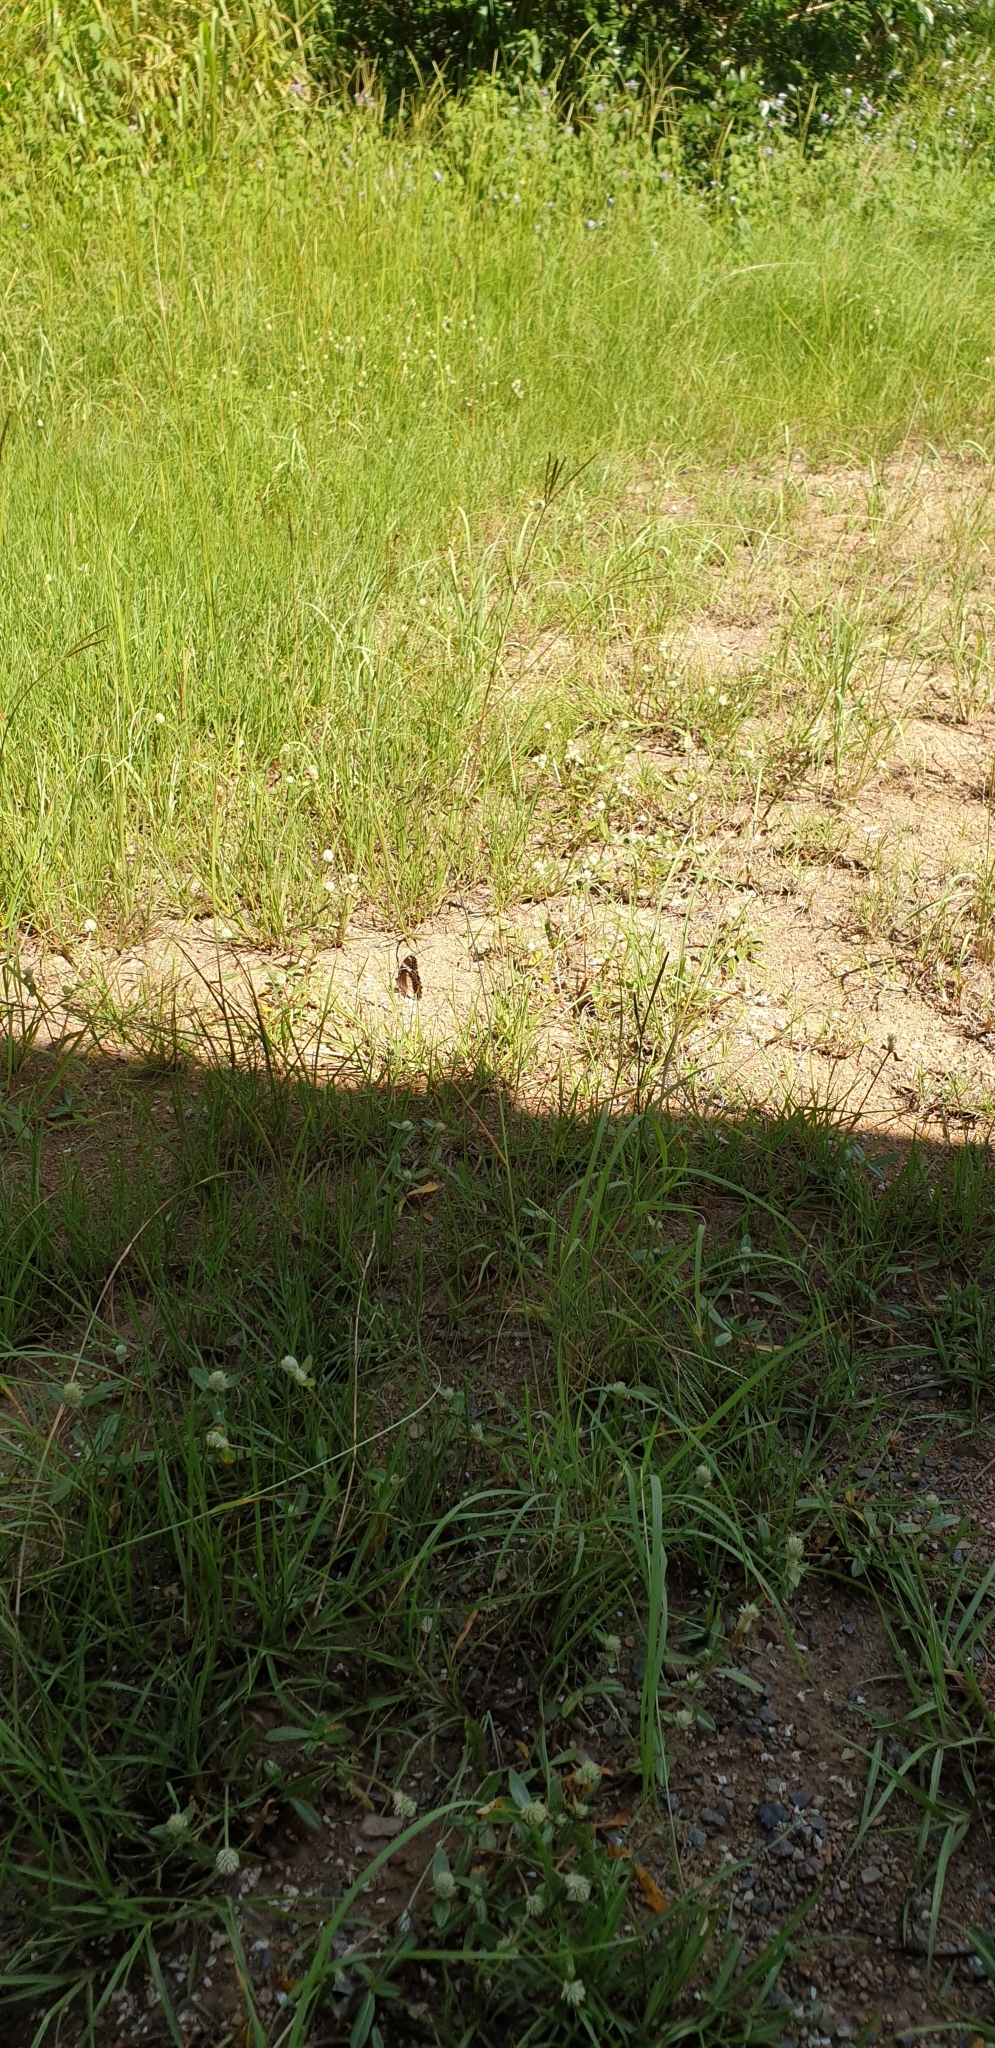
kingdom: Animalia
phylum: Arthropoda
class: Insecta
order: Lepidoptera
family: Nymphalidae
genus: Hypolimnas
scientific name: Hypolimnas bolina
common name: Great eggfly
